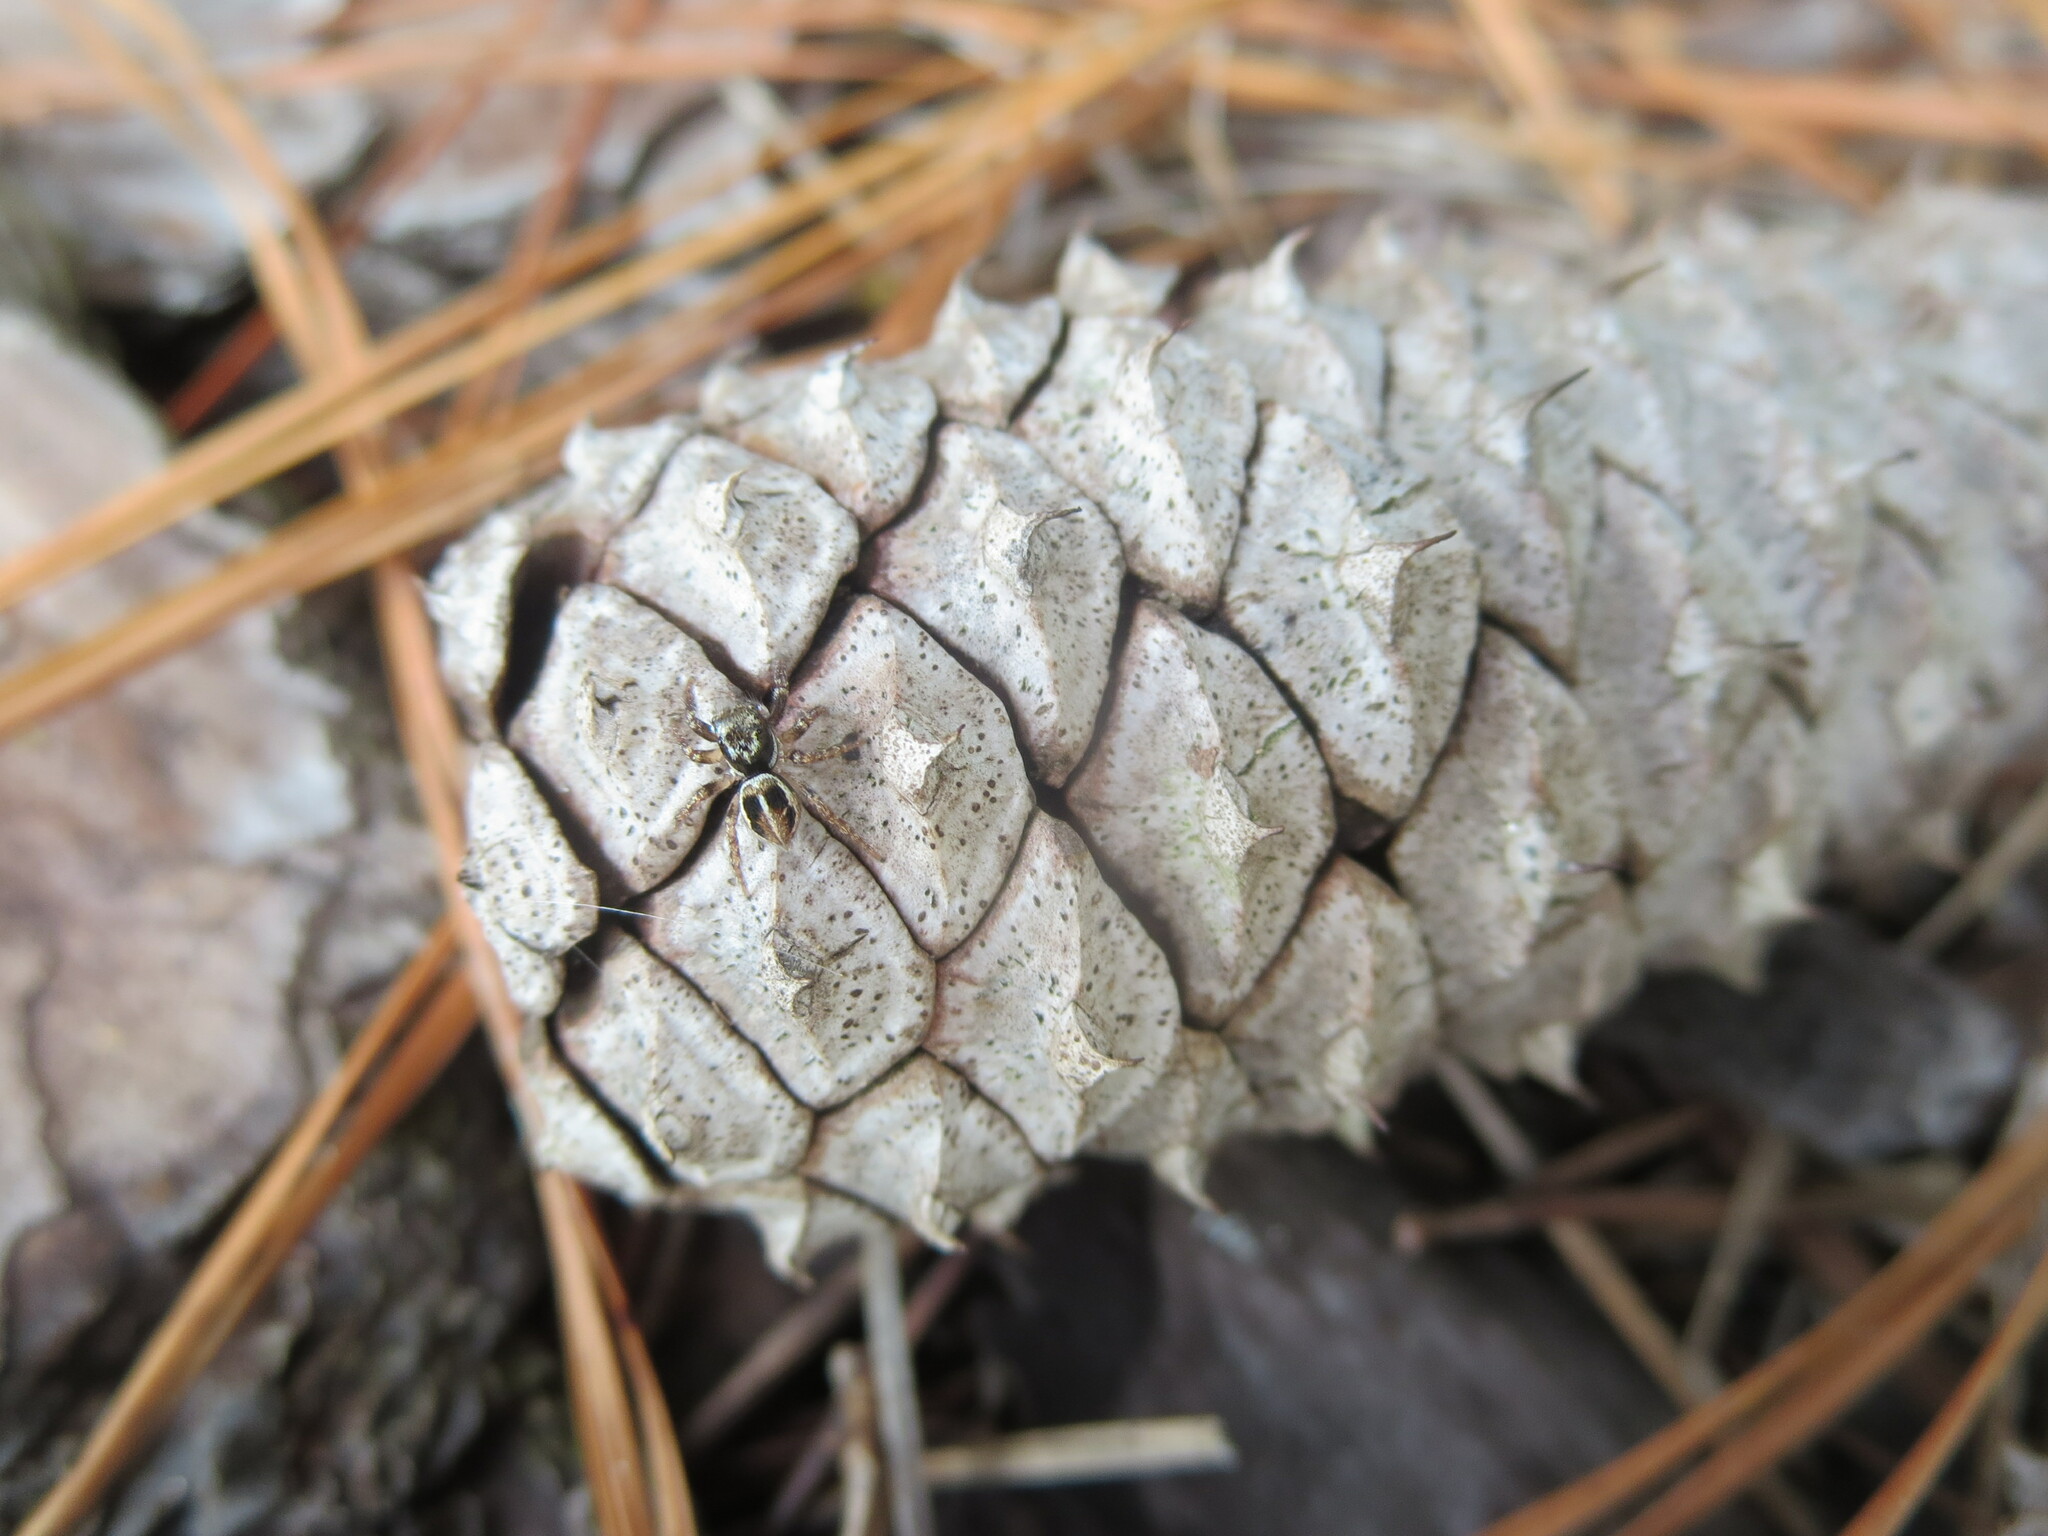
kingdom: Animalia
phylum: Arthropoda
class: Arachnida
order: Araneae
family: Salticidae
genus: Anasaitis
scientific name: Anasaitis canosa
